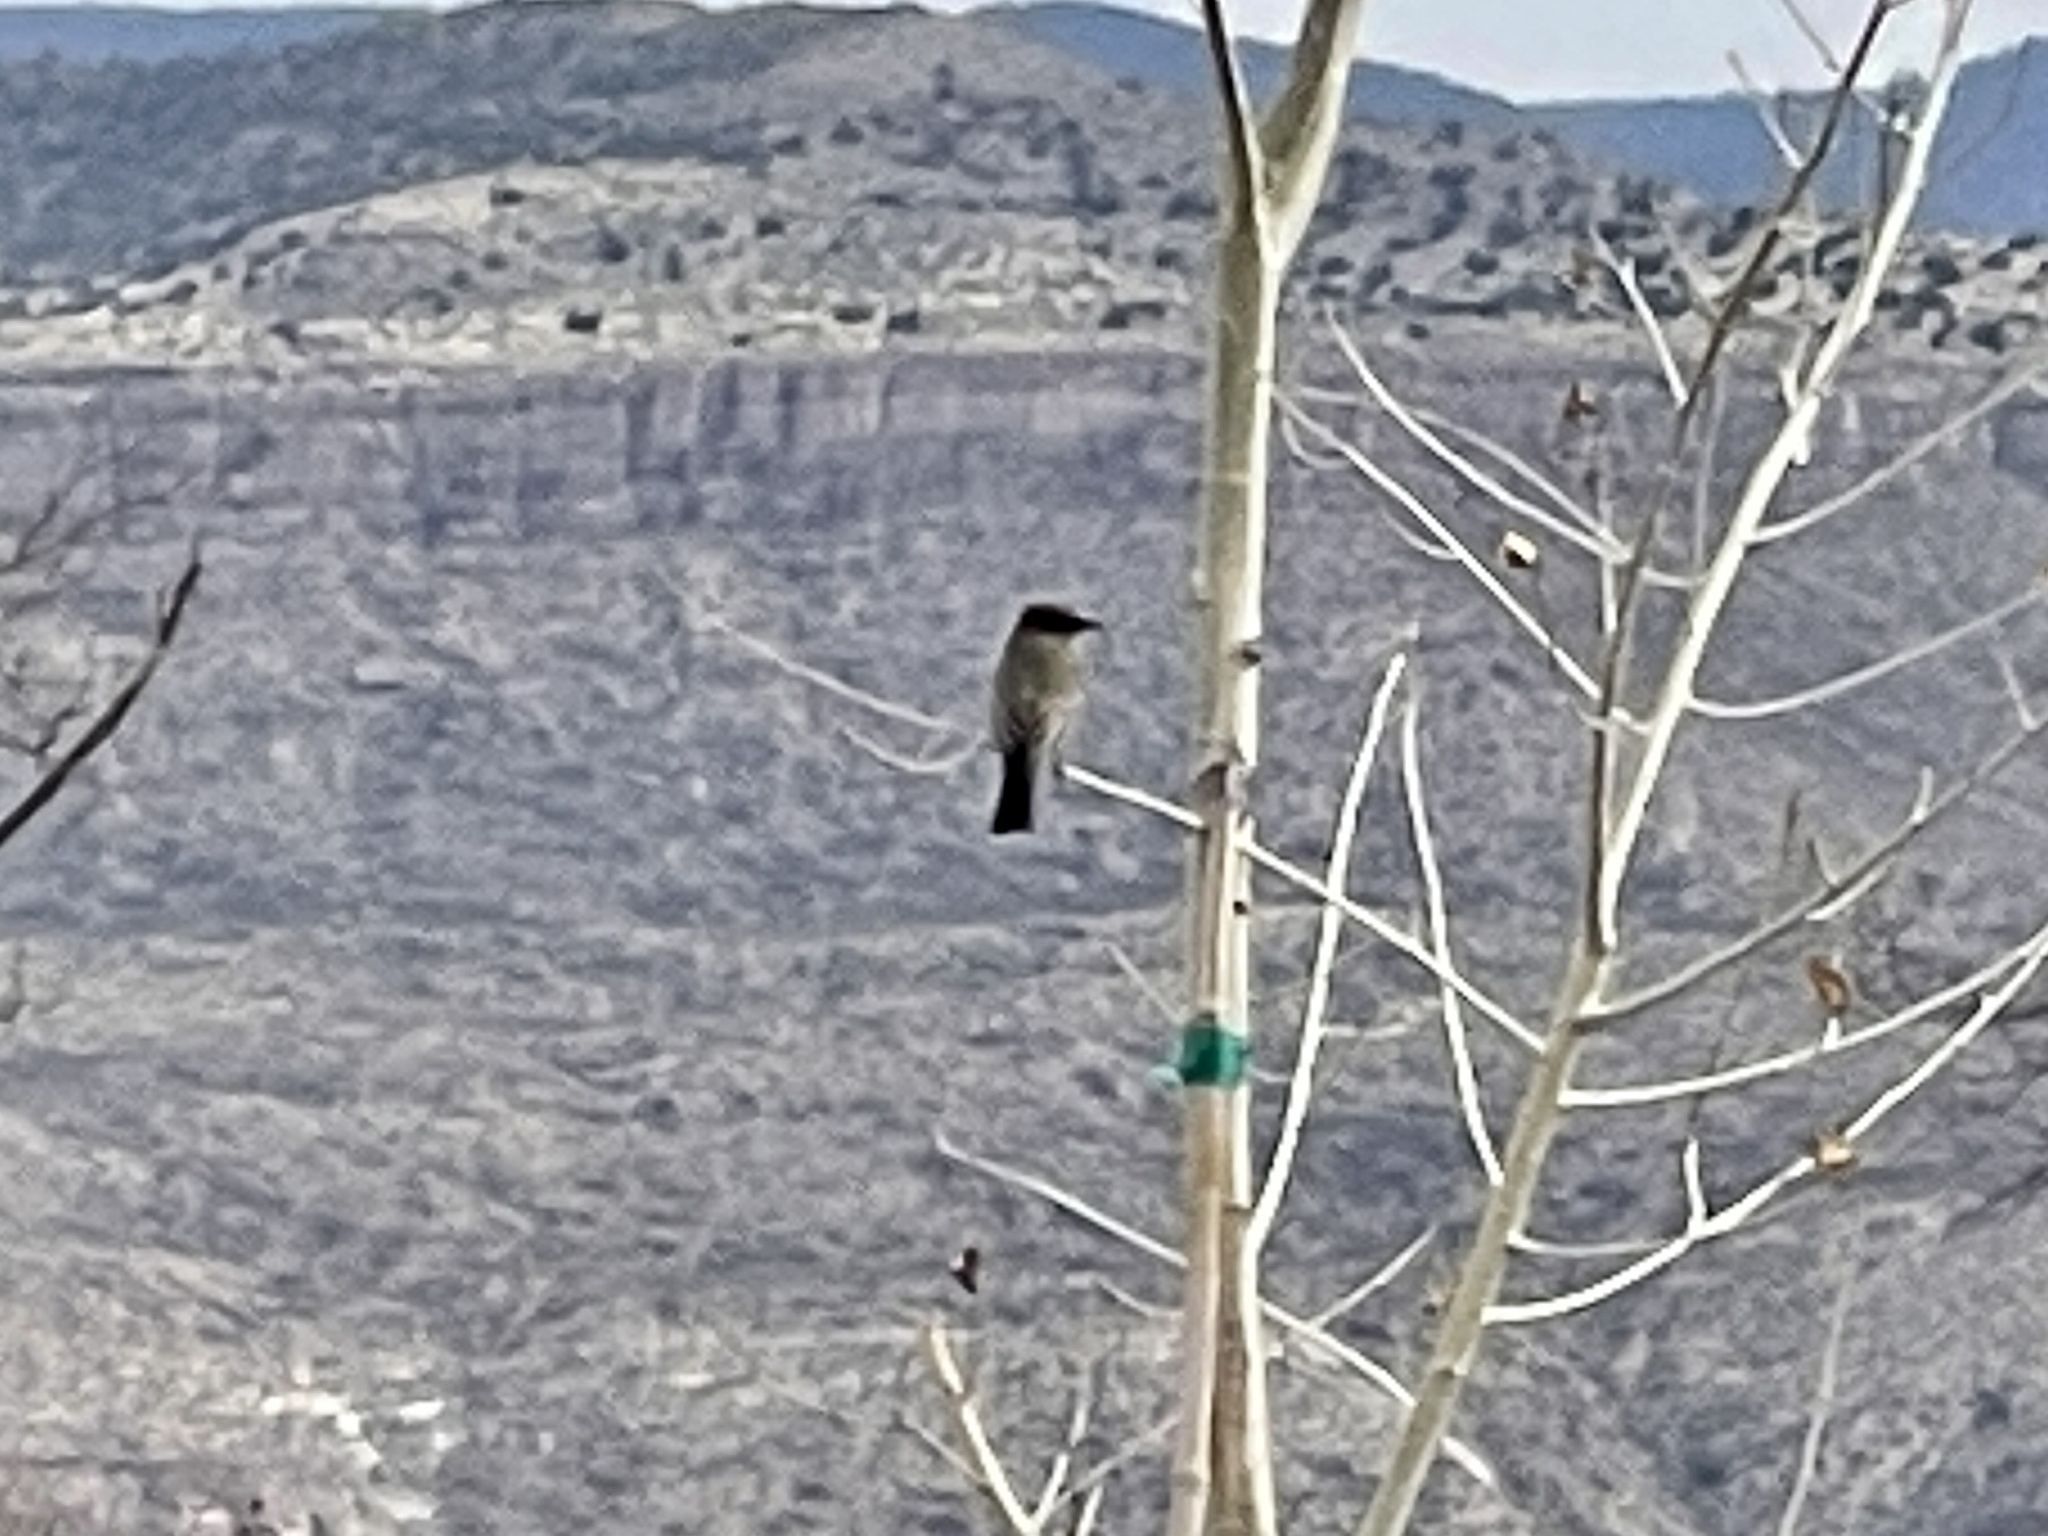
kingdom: Animalia
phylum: Chordata
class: Aves
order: Passeriformes
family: Tyrannidae
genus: Sayornis
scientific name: Sayornis saya
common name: Say's phoebe
